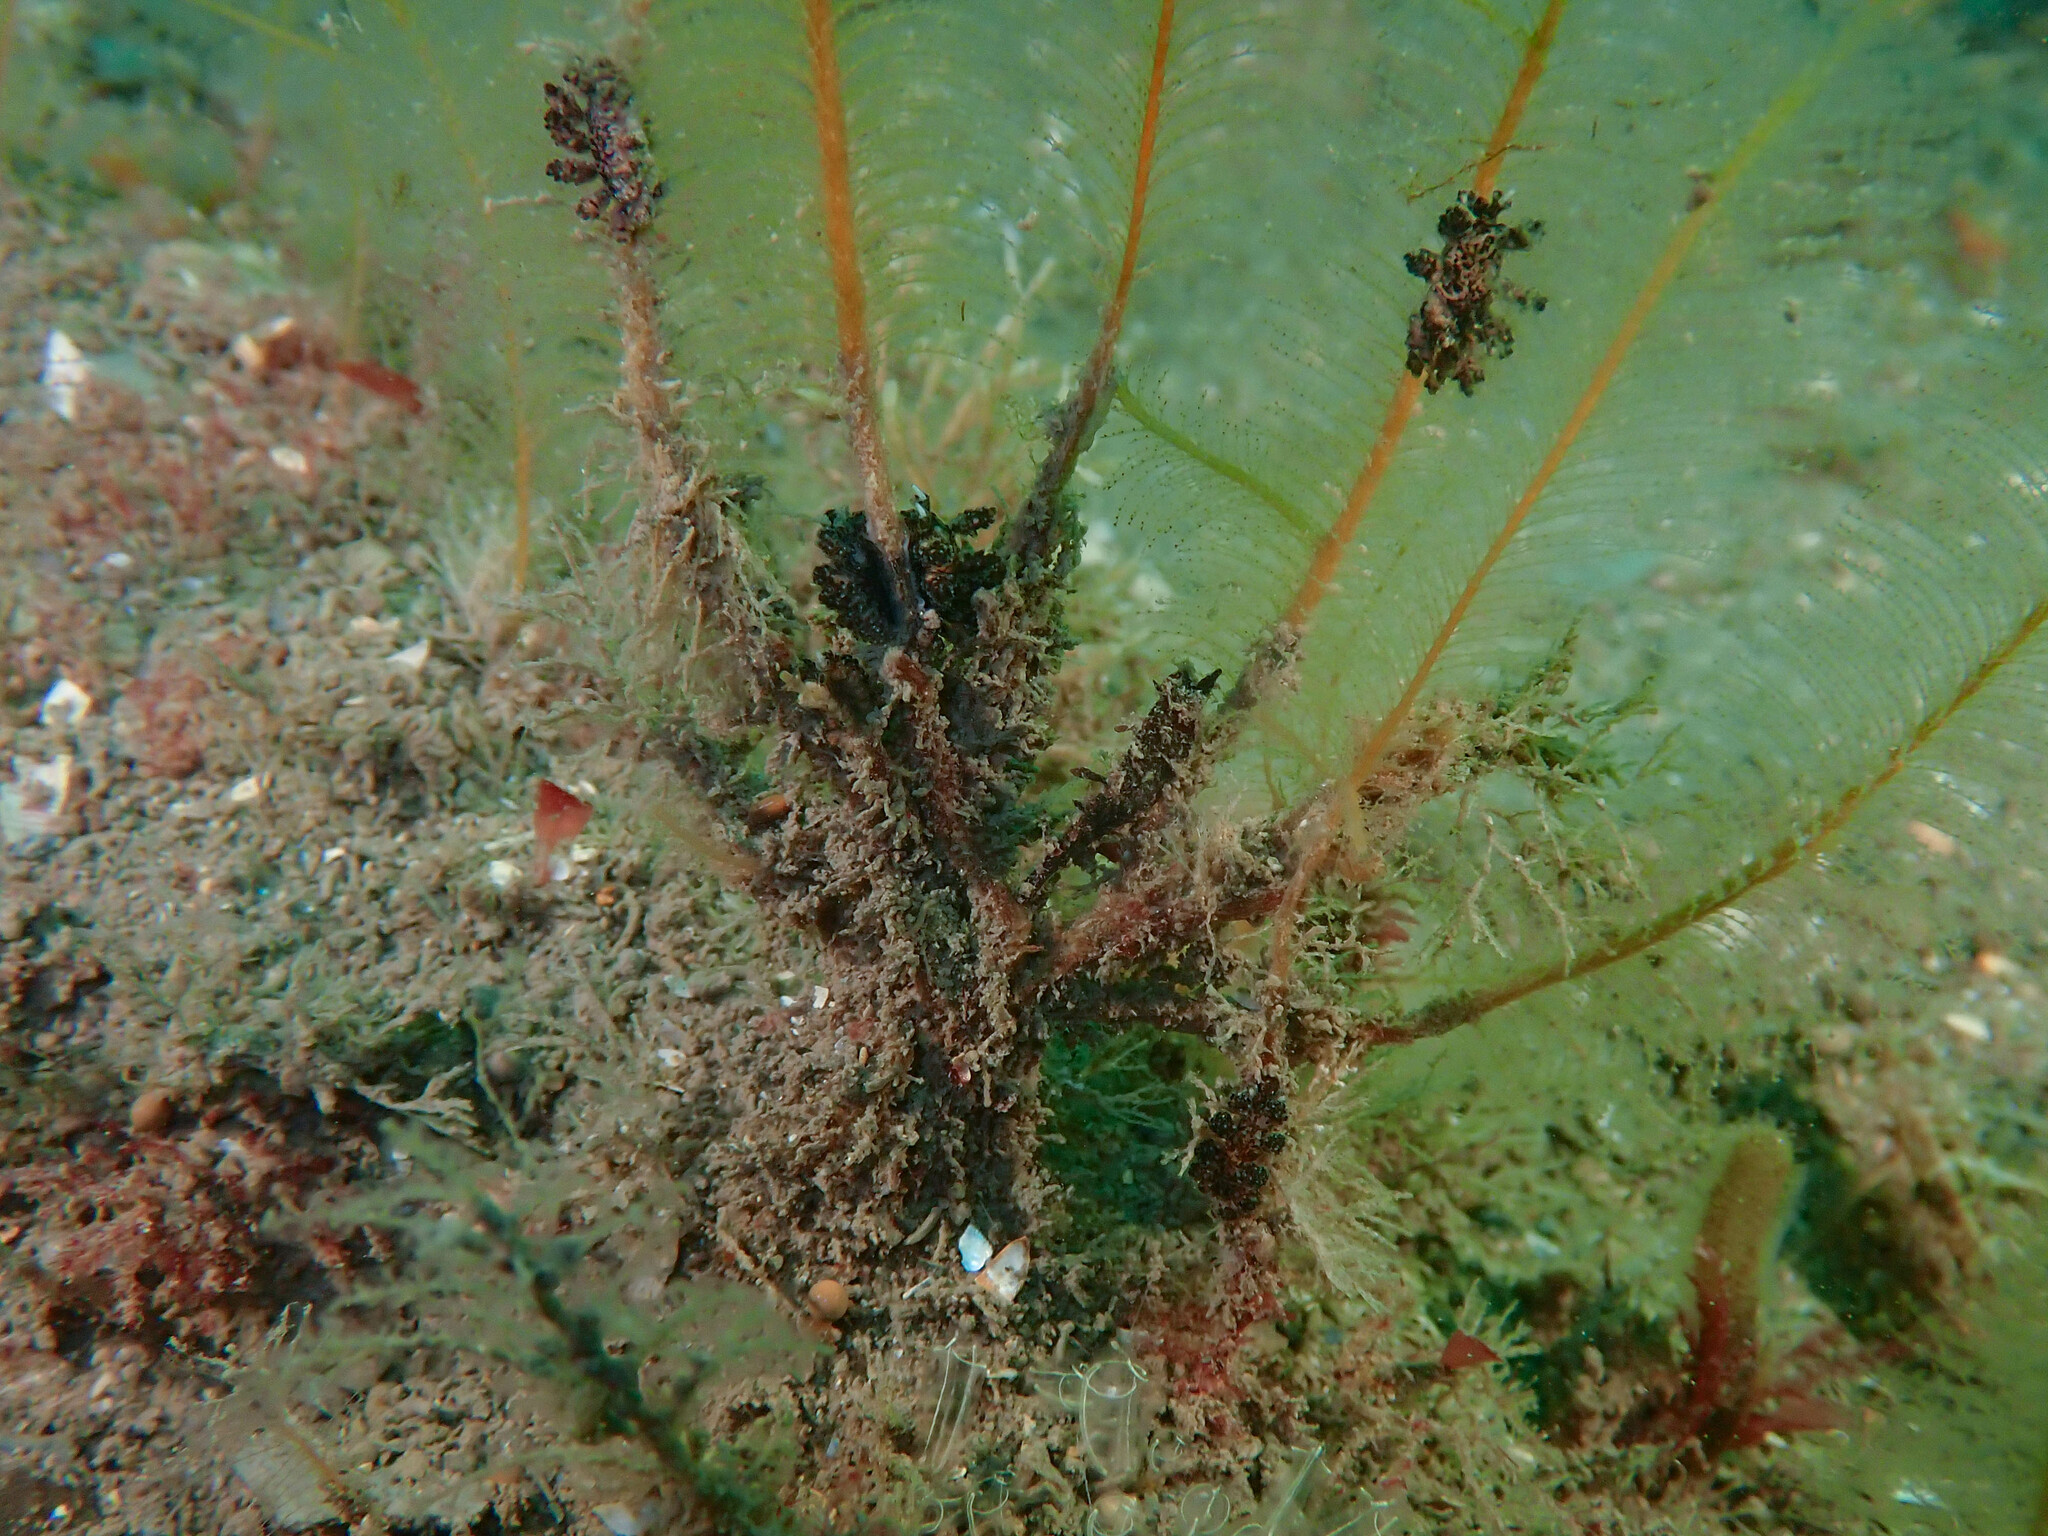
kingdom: Animalia
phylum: Mollusca
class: Gastropoda
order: Nudibranchia
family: Dotidae
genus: Doto
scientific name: Doto cuspidata
